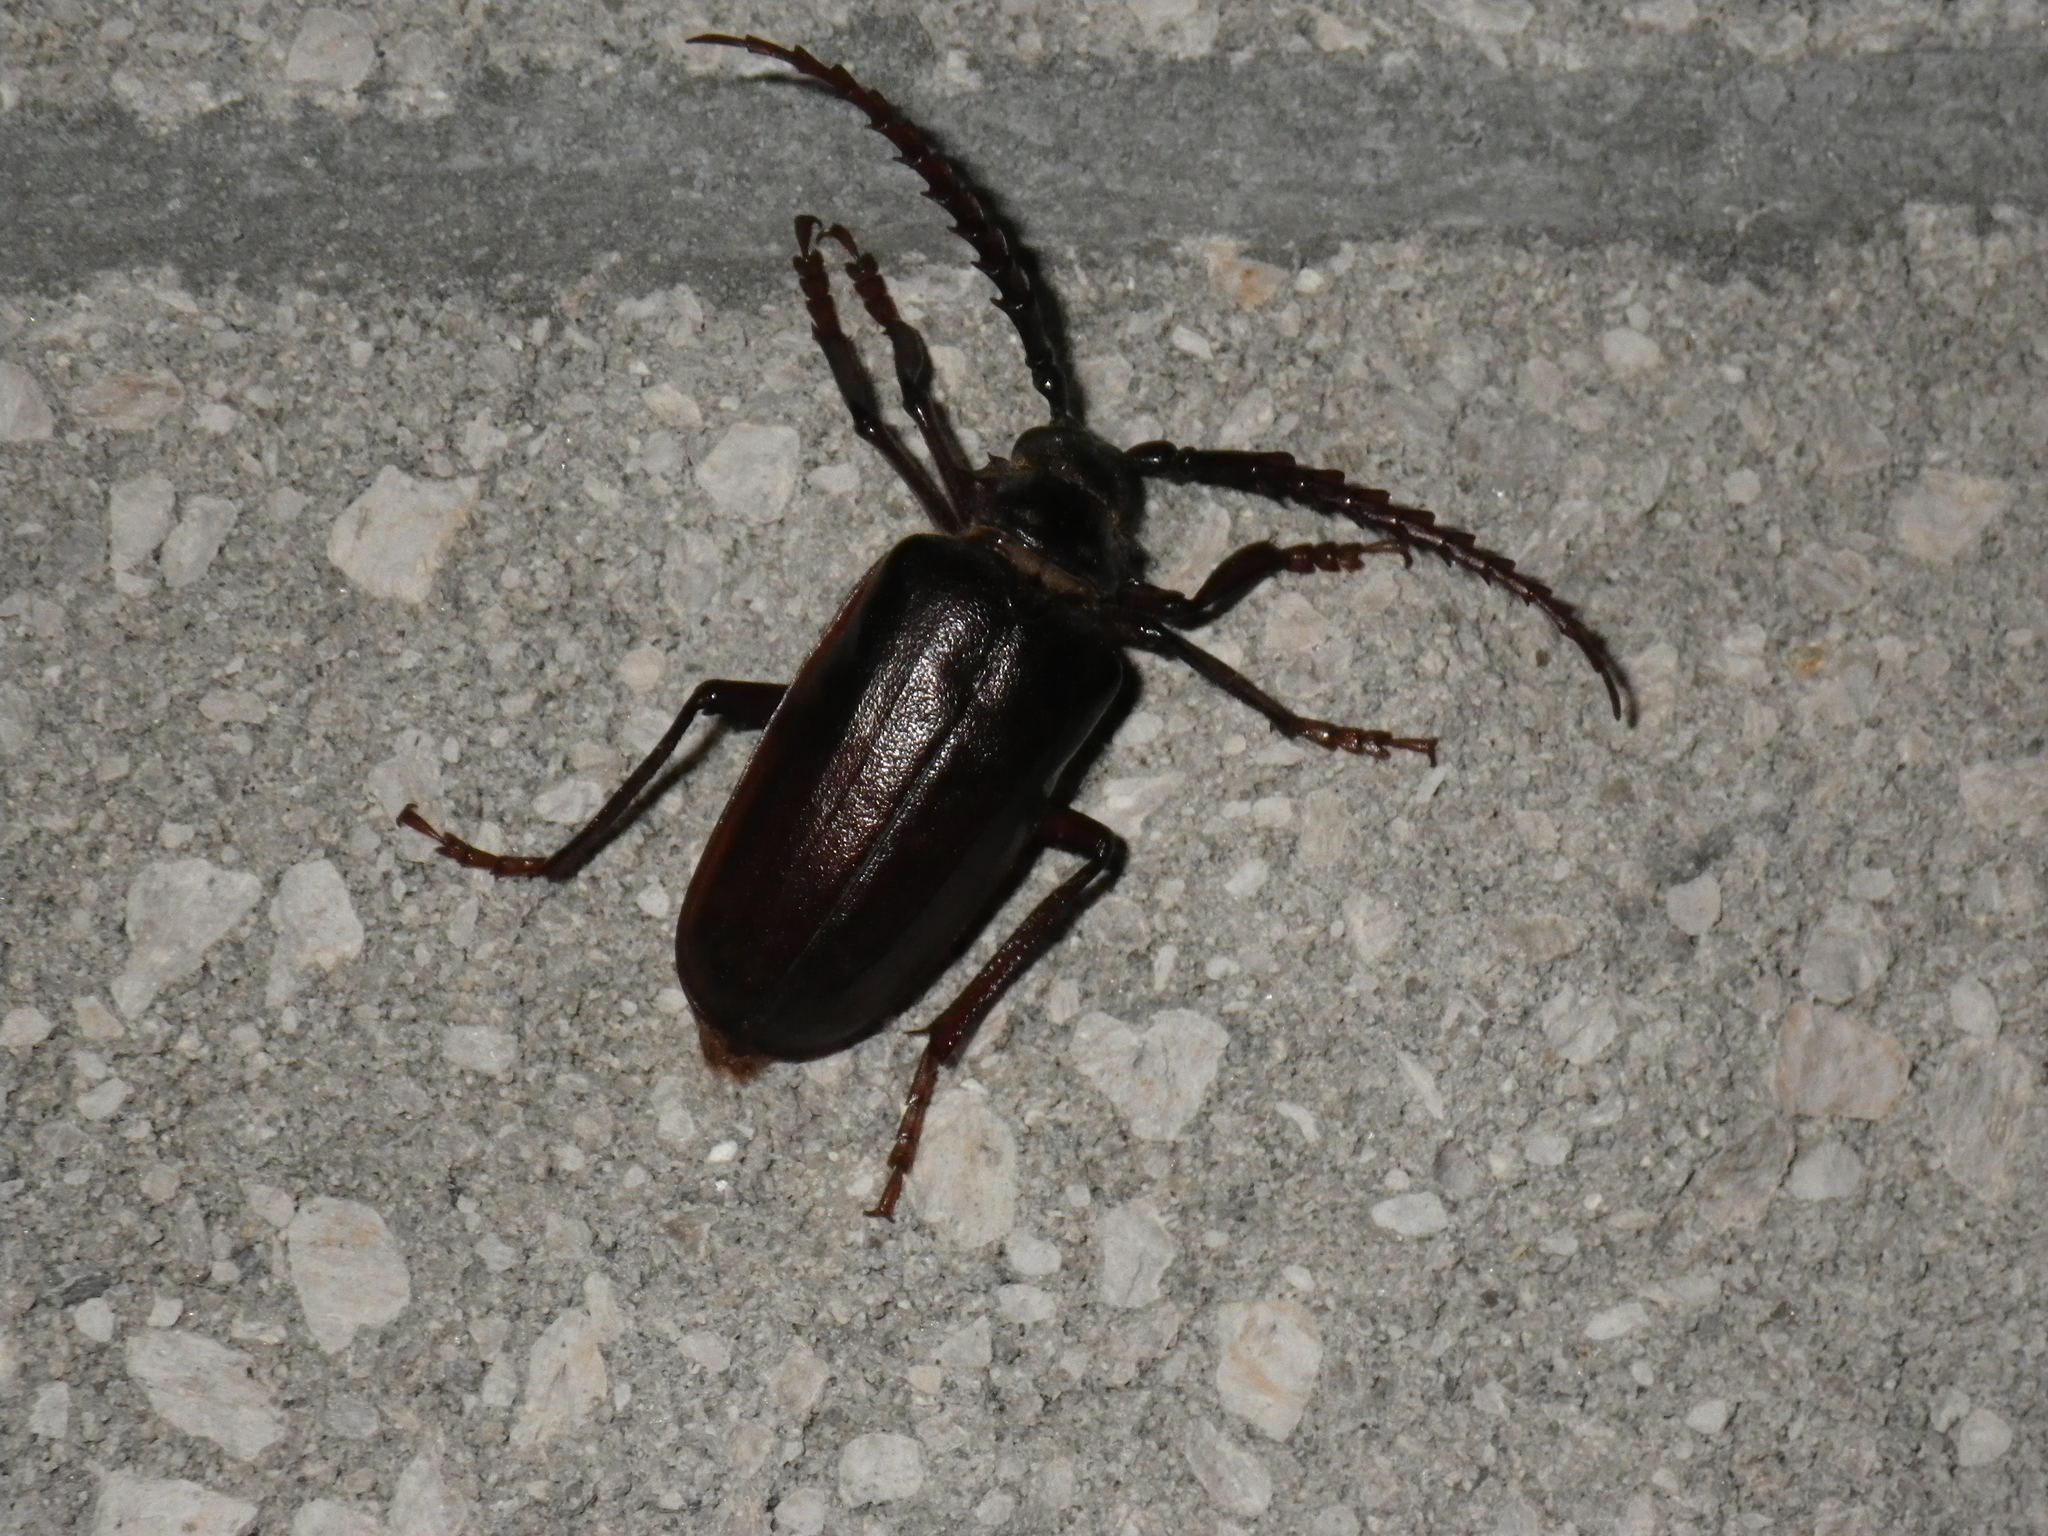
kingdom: Animalia
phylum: Arthropoda
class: Insecta
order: Coleoptera
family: Cerambycidae
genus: Prionus
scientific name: Prionus californicus
